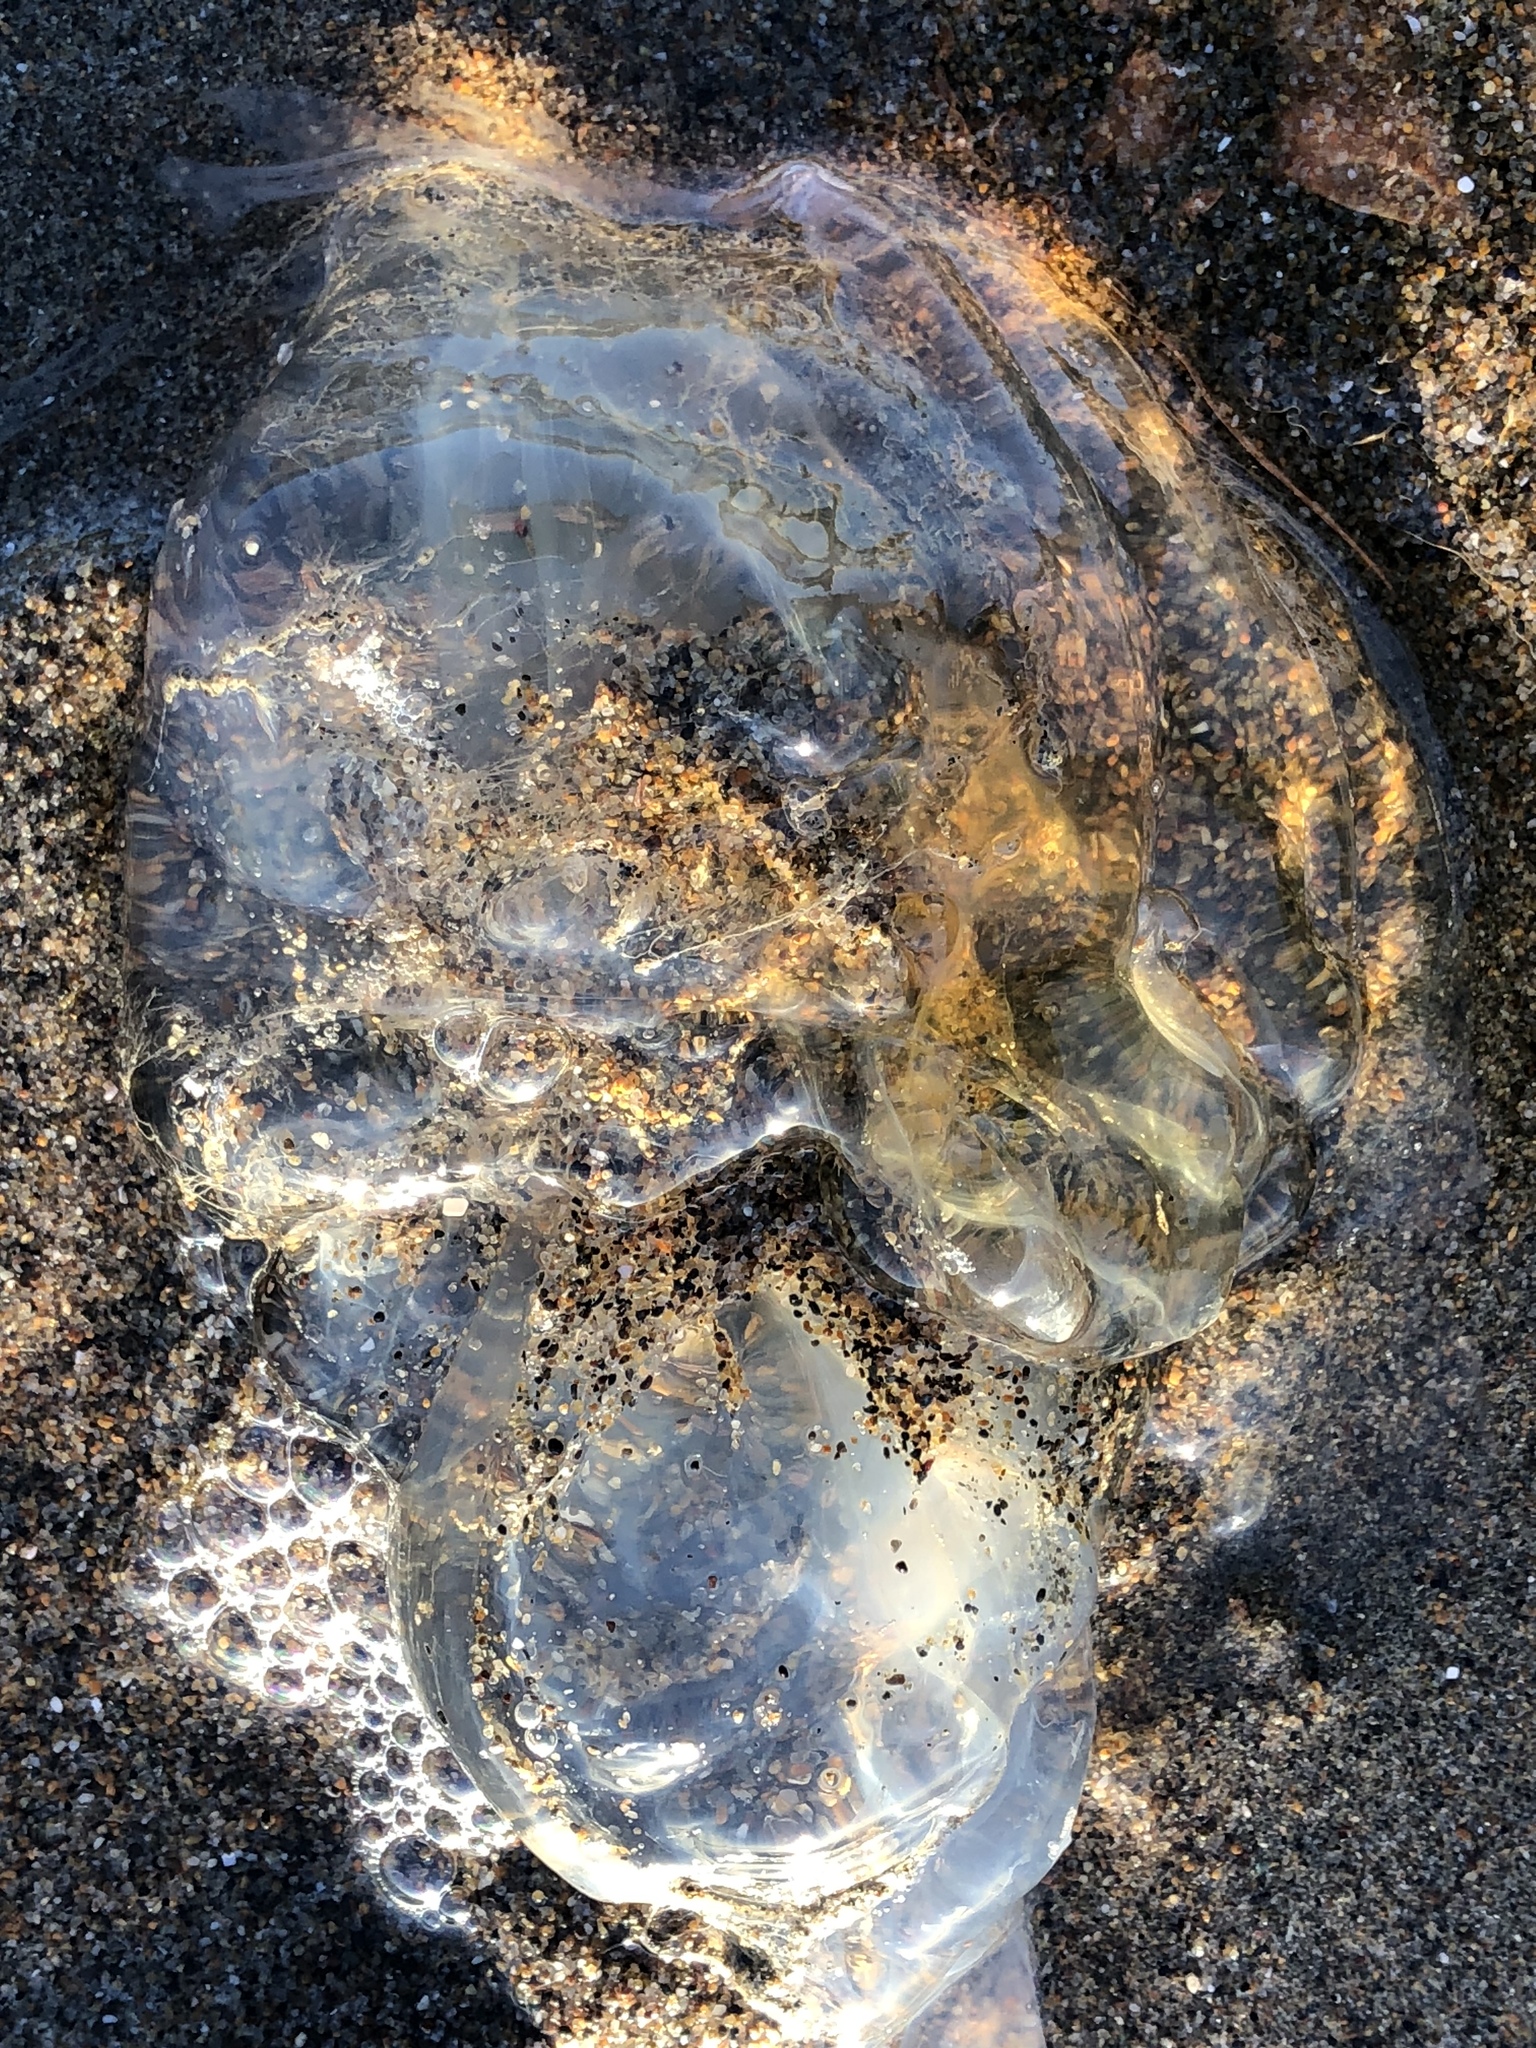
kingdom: Animalia
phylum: Cnidaria
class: Scyphozoa
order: Semaeostomeae
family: Pelagiidae
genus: Chrysaora
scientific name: Chrysaora fuscescens
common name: Sea nettle
